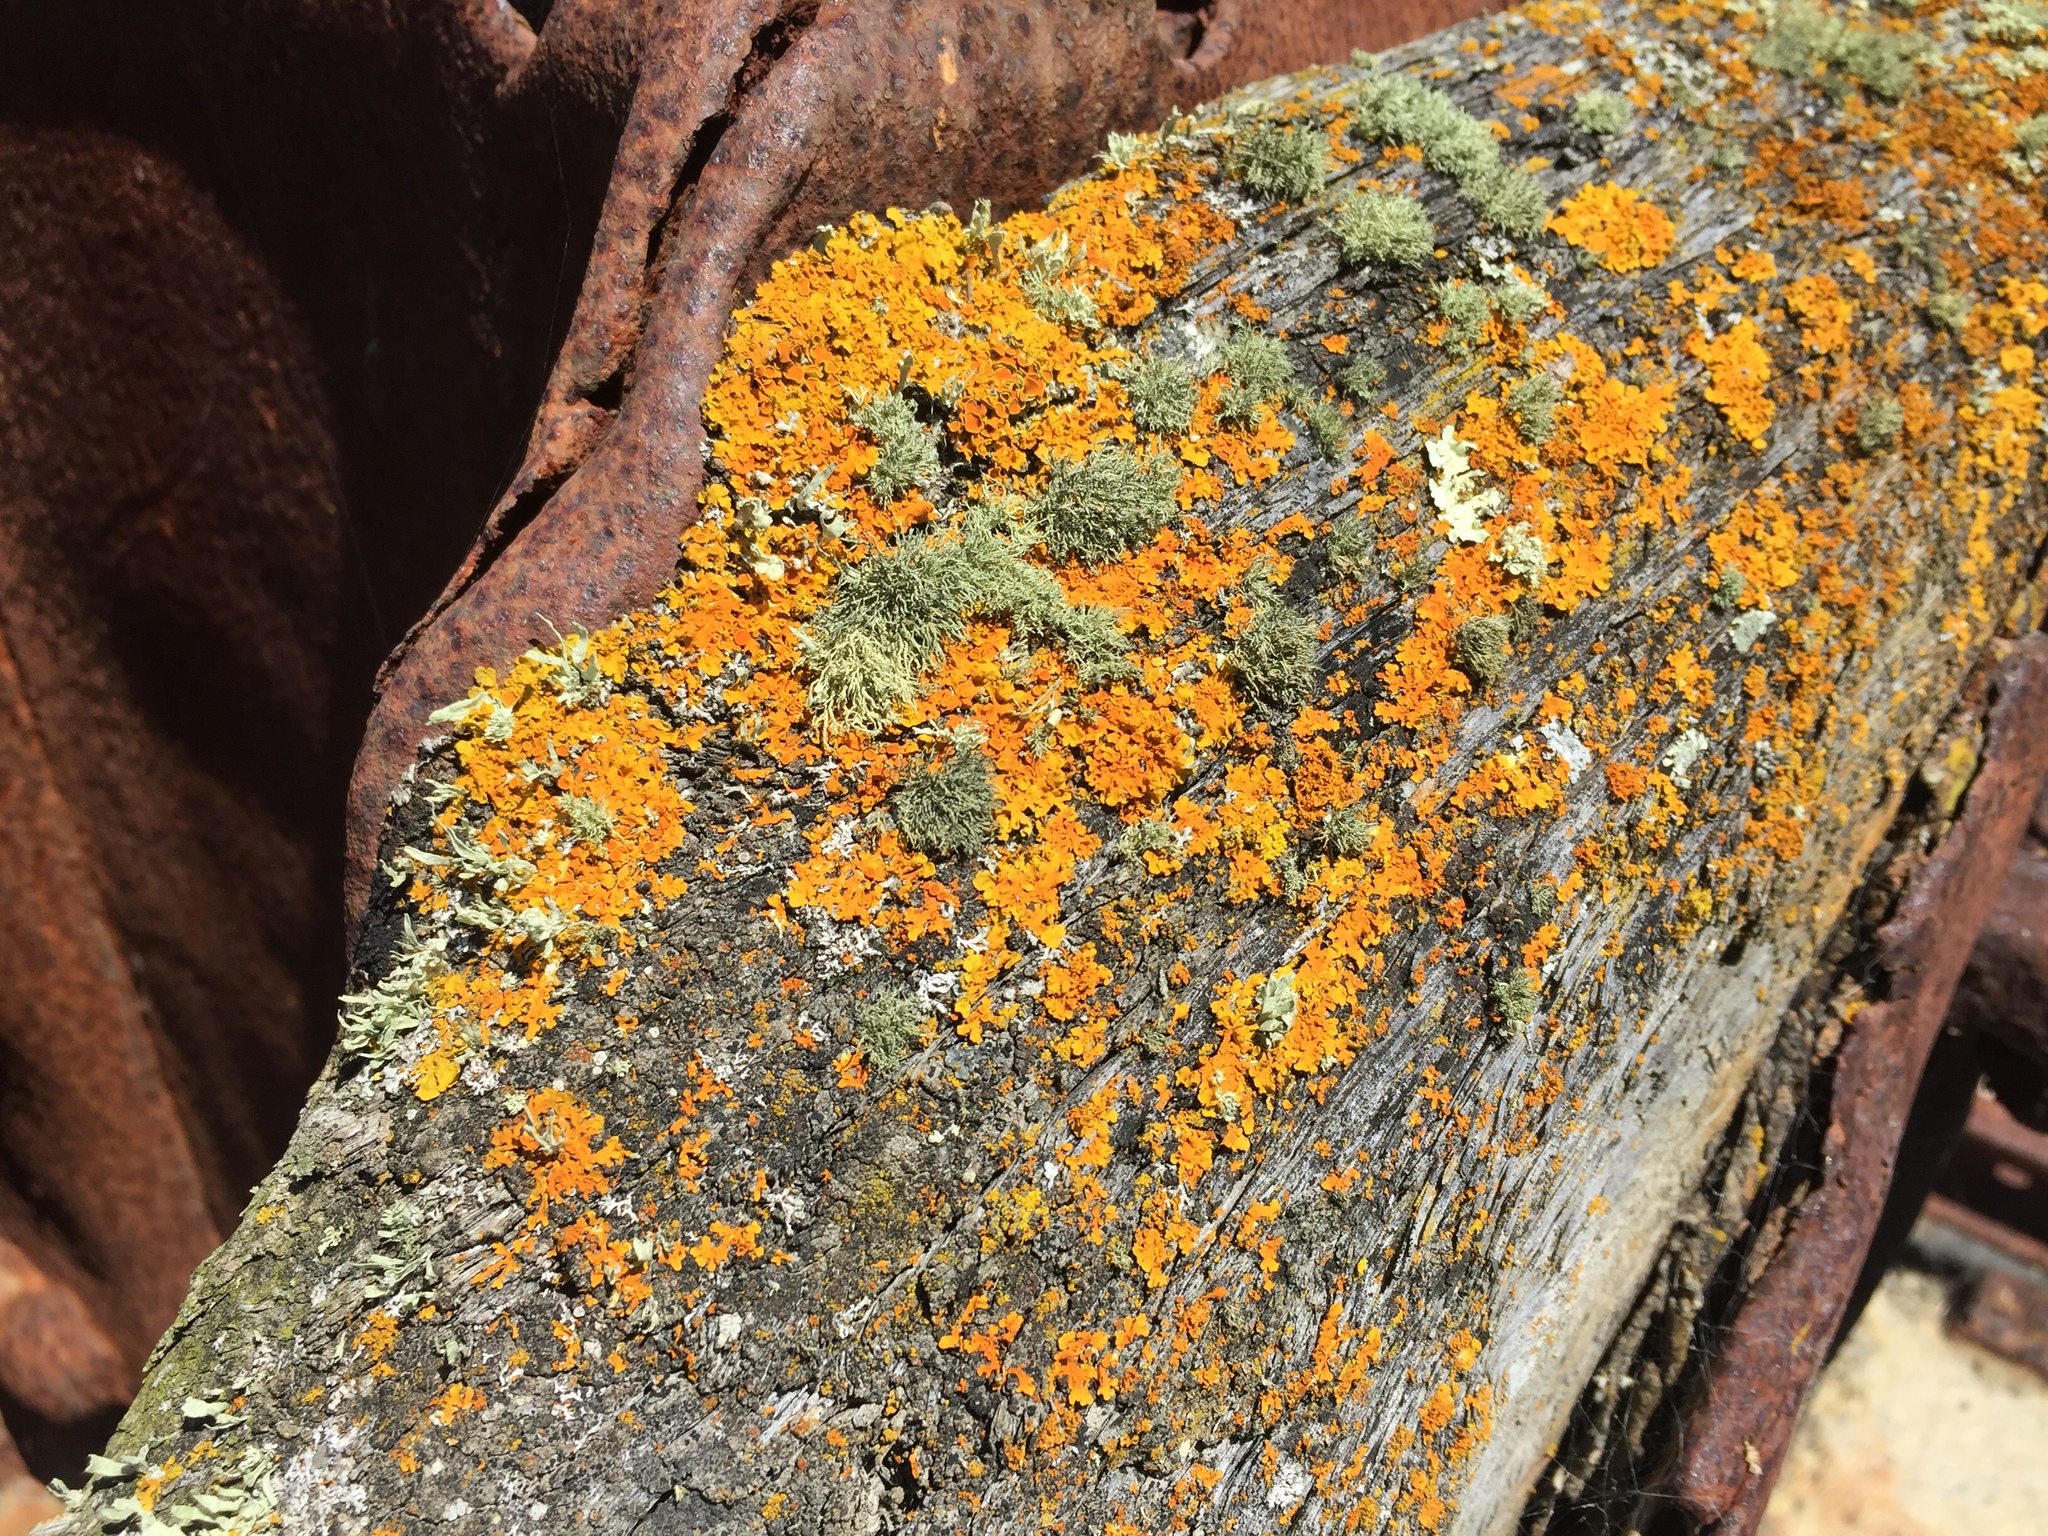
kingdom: Fungi
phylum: Ascomycota
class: Lecanoromycetes
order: Teloschistales
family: Teloschistaceae
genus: Xanthoria
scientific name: Xanthoria parietina
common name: Common orange lichen
